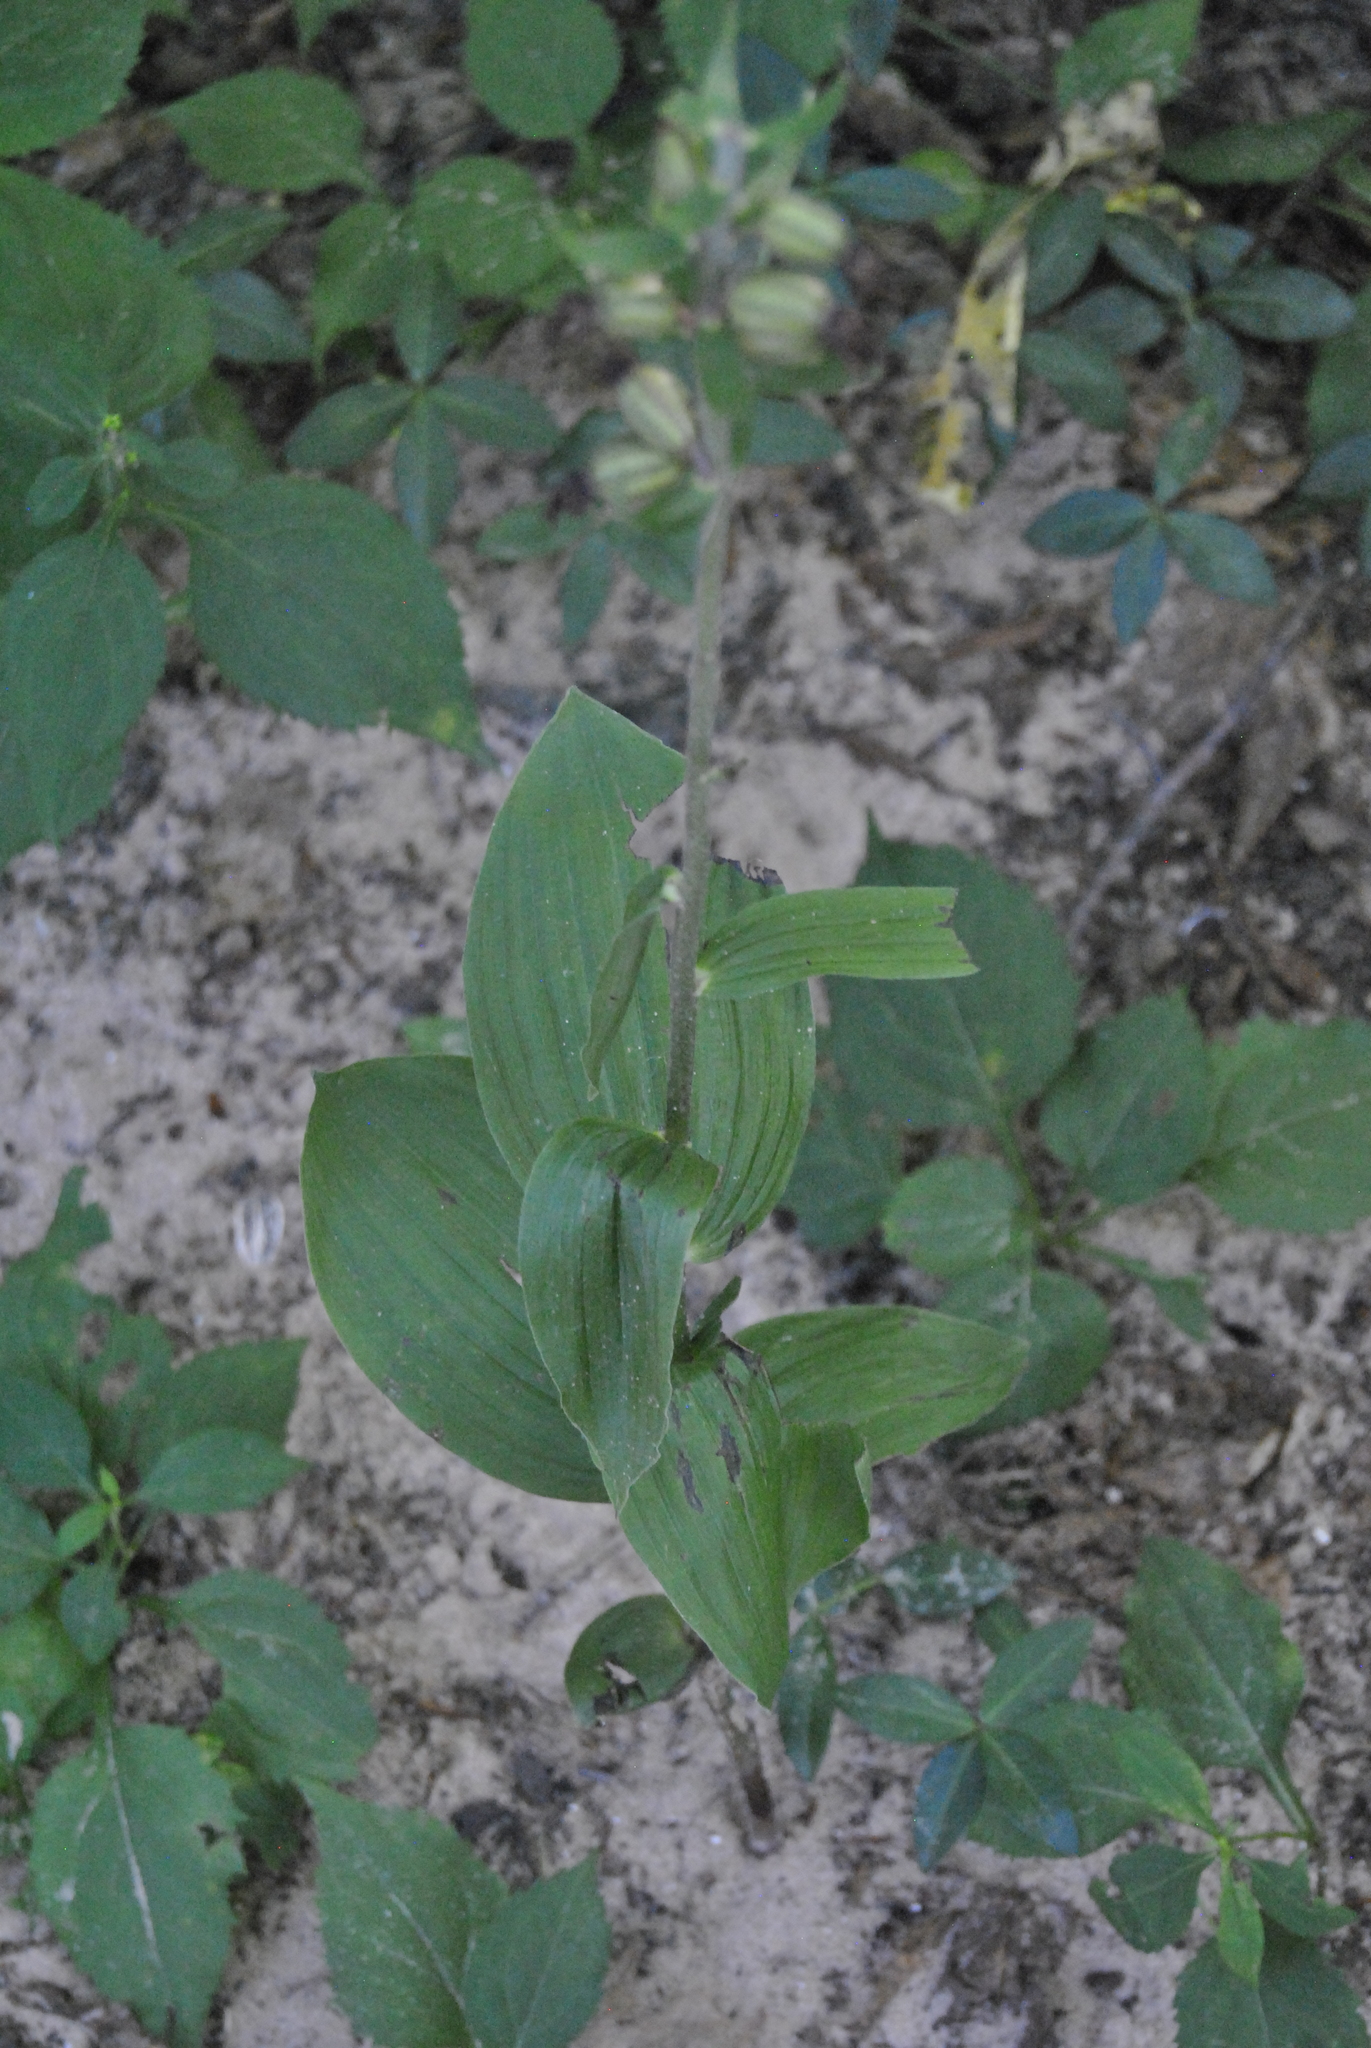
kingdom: Plantae
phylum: Tracheophyta
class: Liliopsida
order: Asparagales
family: Orchidaceae
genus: Epipactis
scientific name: Epipactis helleborine
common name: Broad-leaved helleborine
